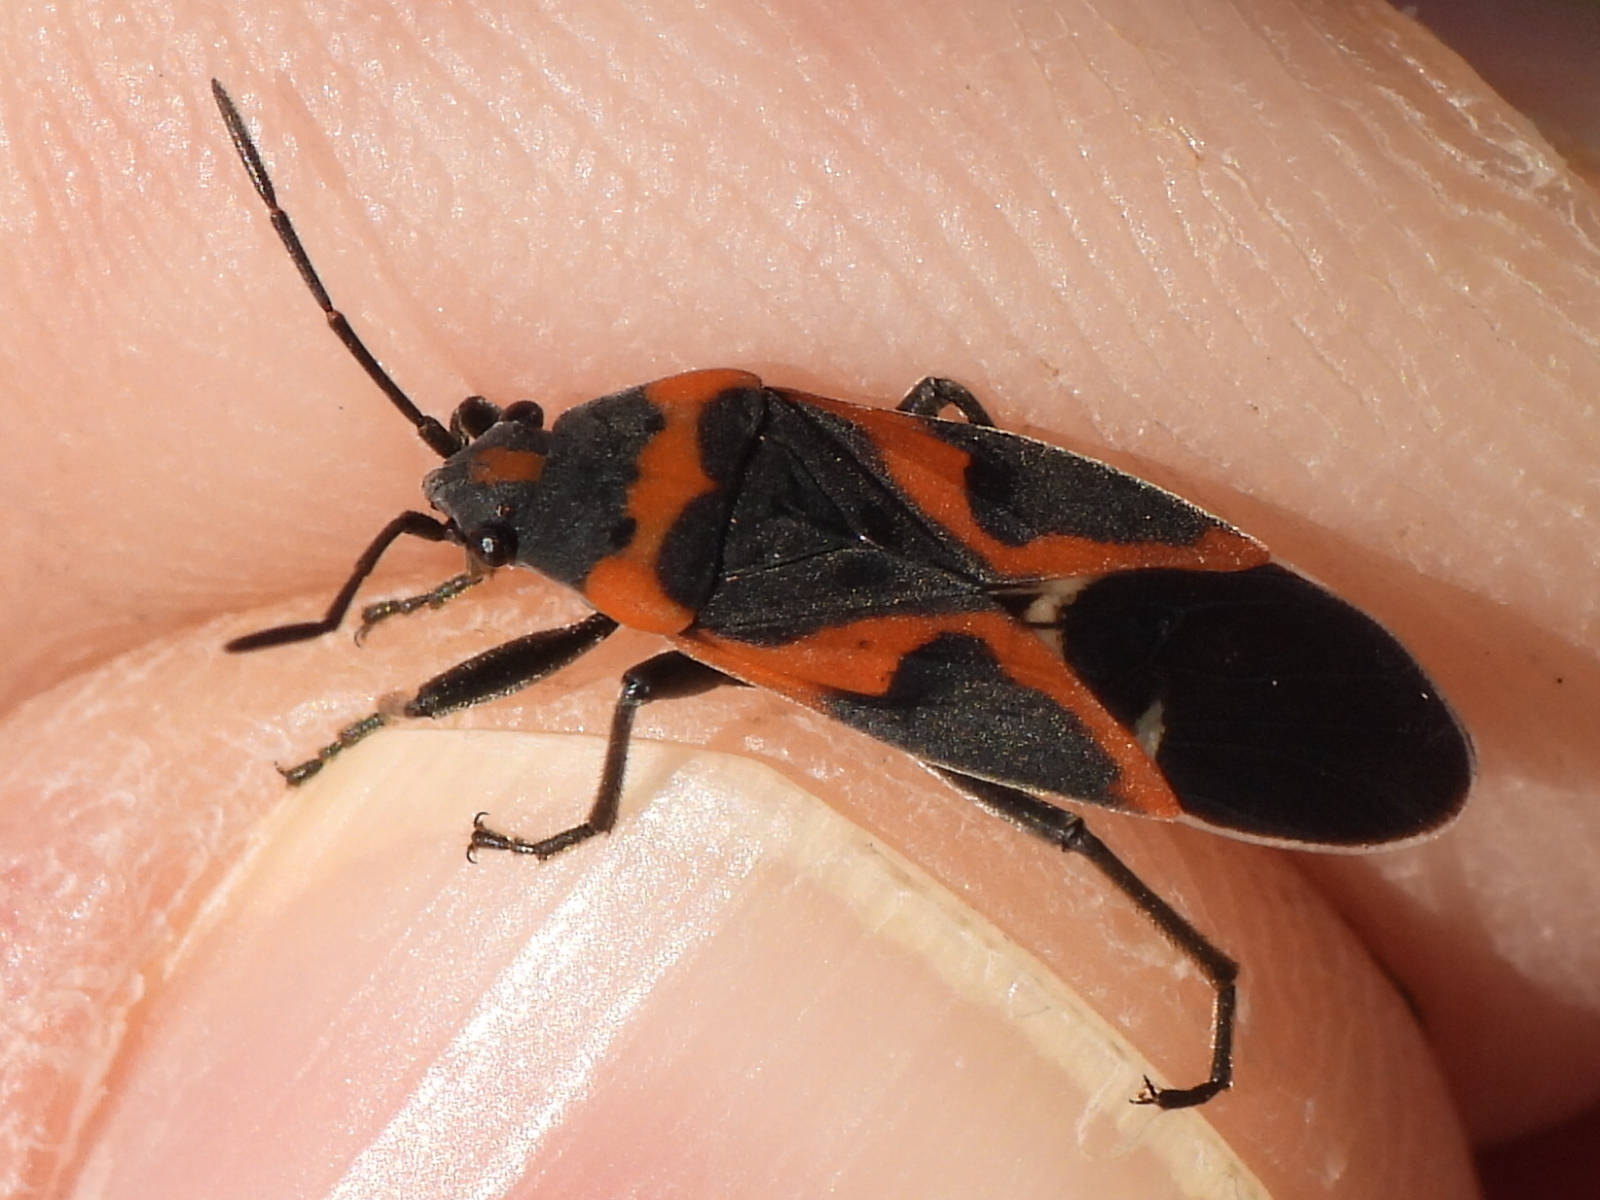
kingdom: Animalia
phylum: Arthropoda
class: Insecta
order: Hemiptera
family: Lygaeidae
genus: Lygaeus
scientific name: Lygaeus kalmii
